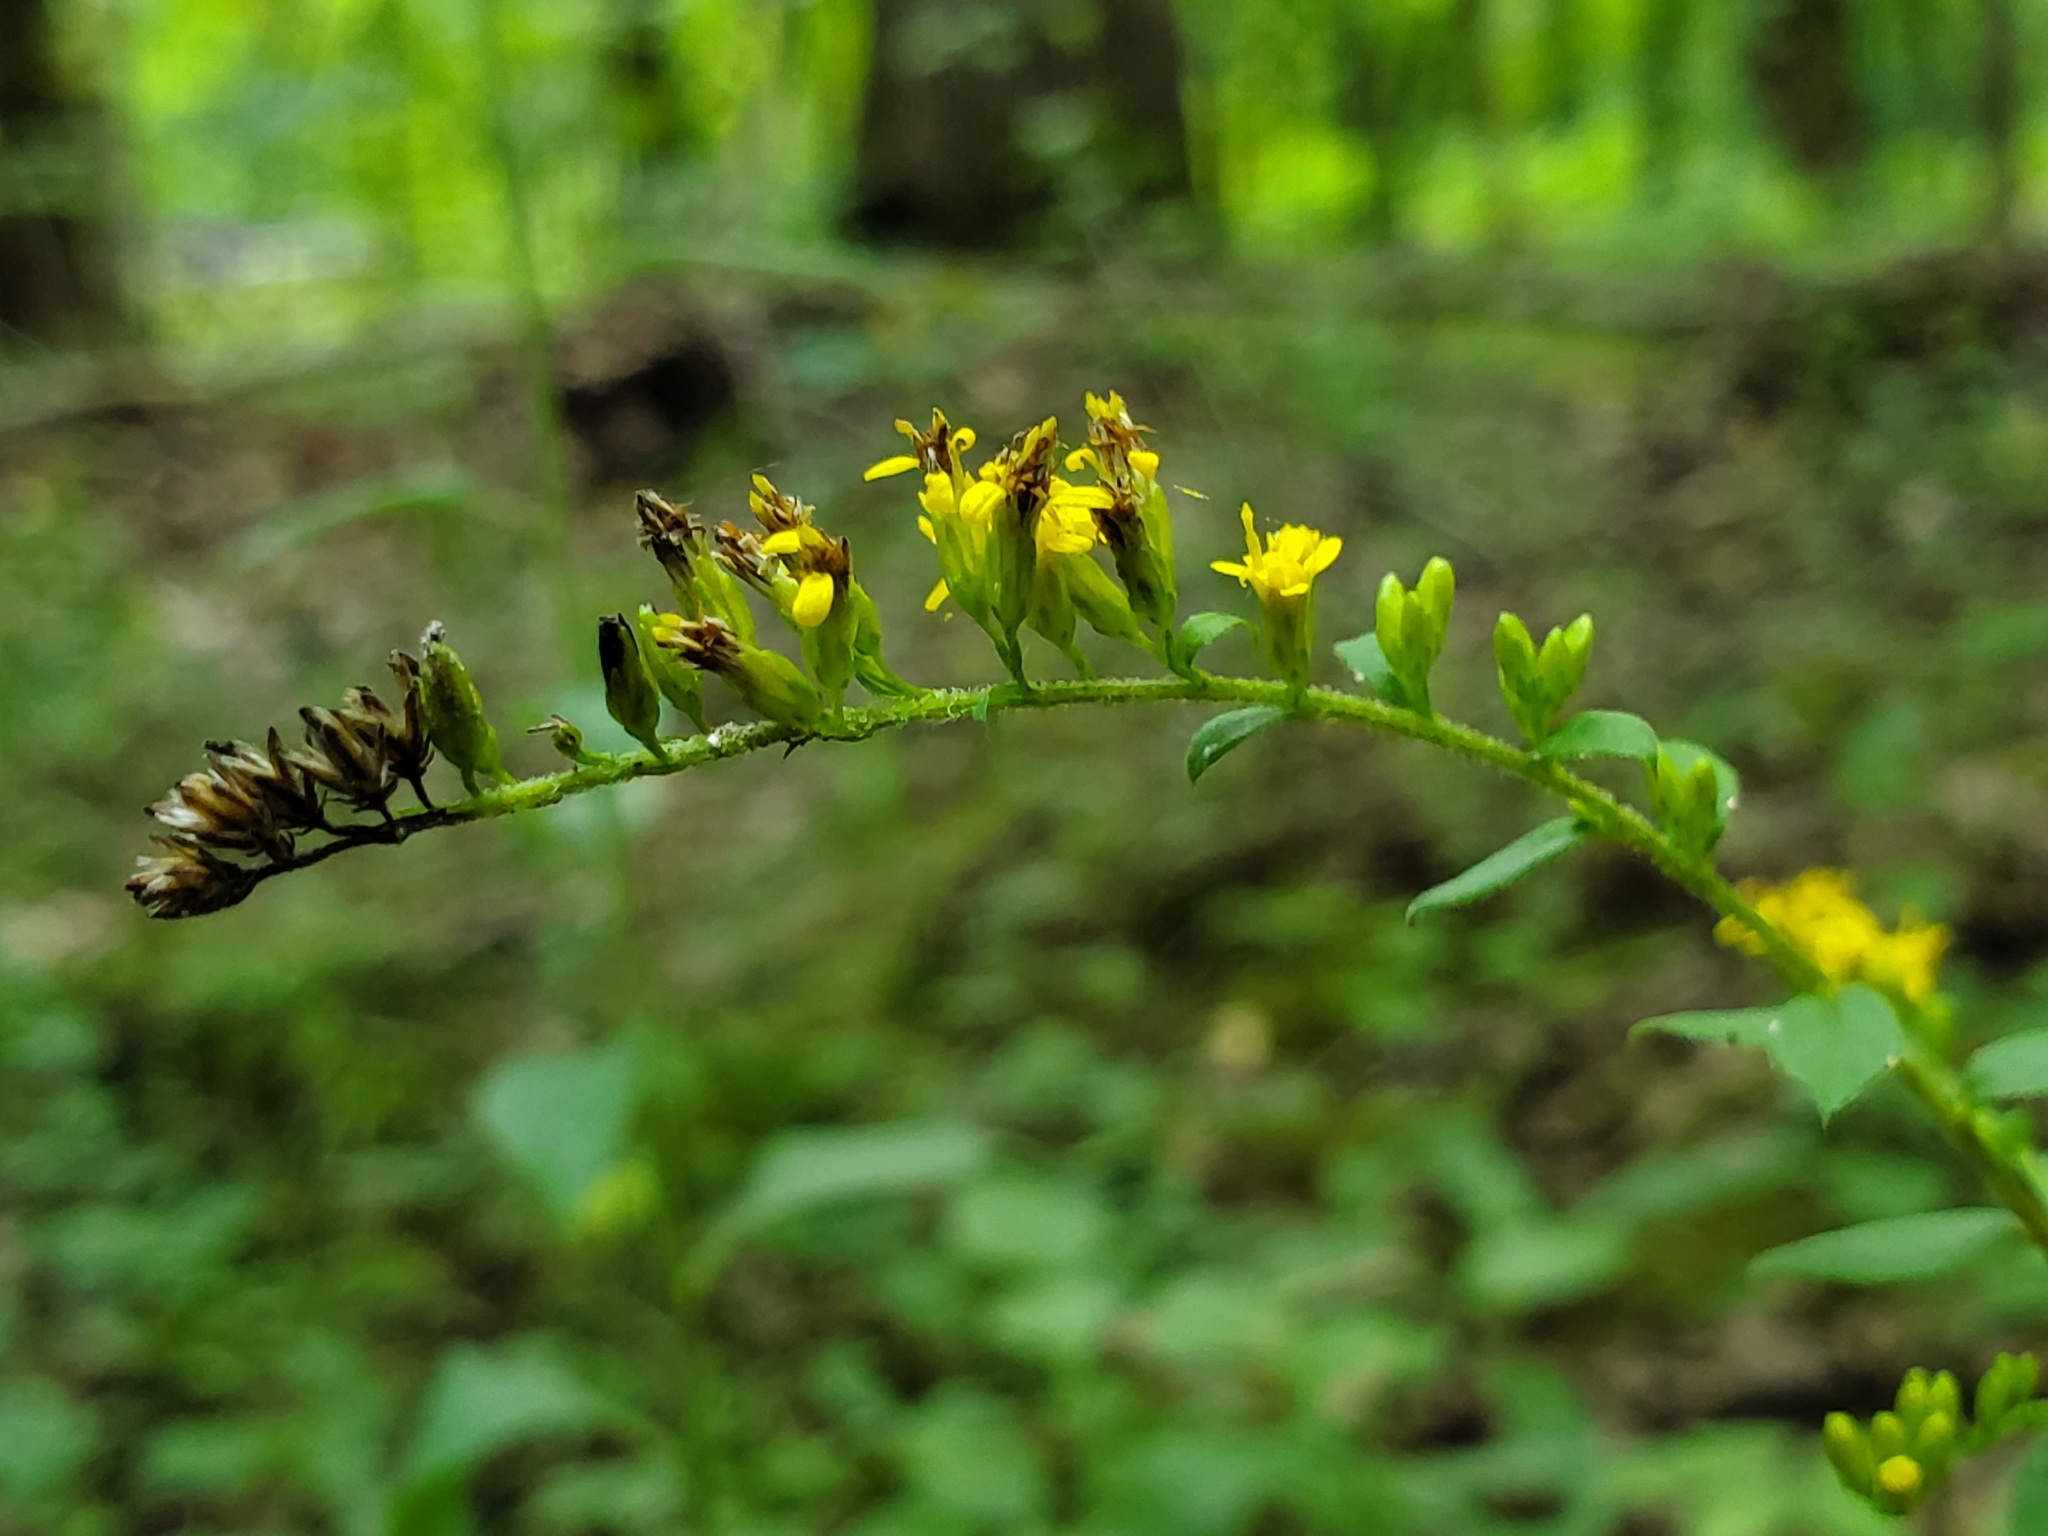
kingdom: Plantae
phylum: Tracheophyta
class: Magnoliopsida
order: Asterales
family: Asteraceae
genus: Solidago
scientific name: Solidago ulmifolia
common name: Elm-leaf goldenrod
